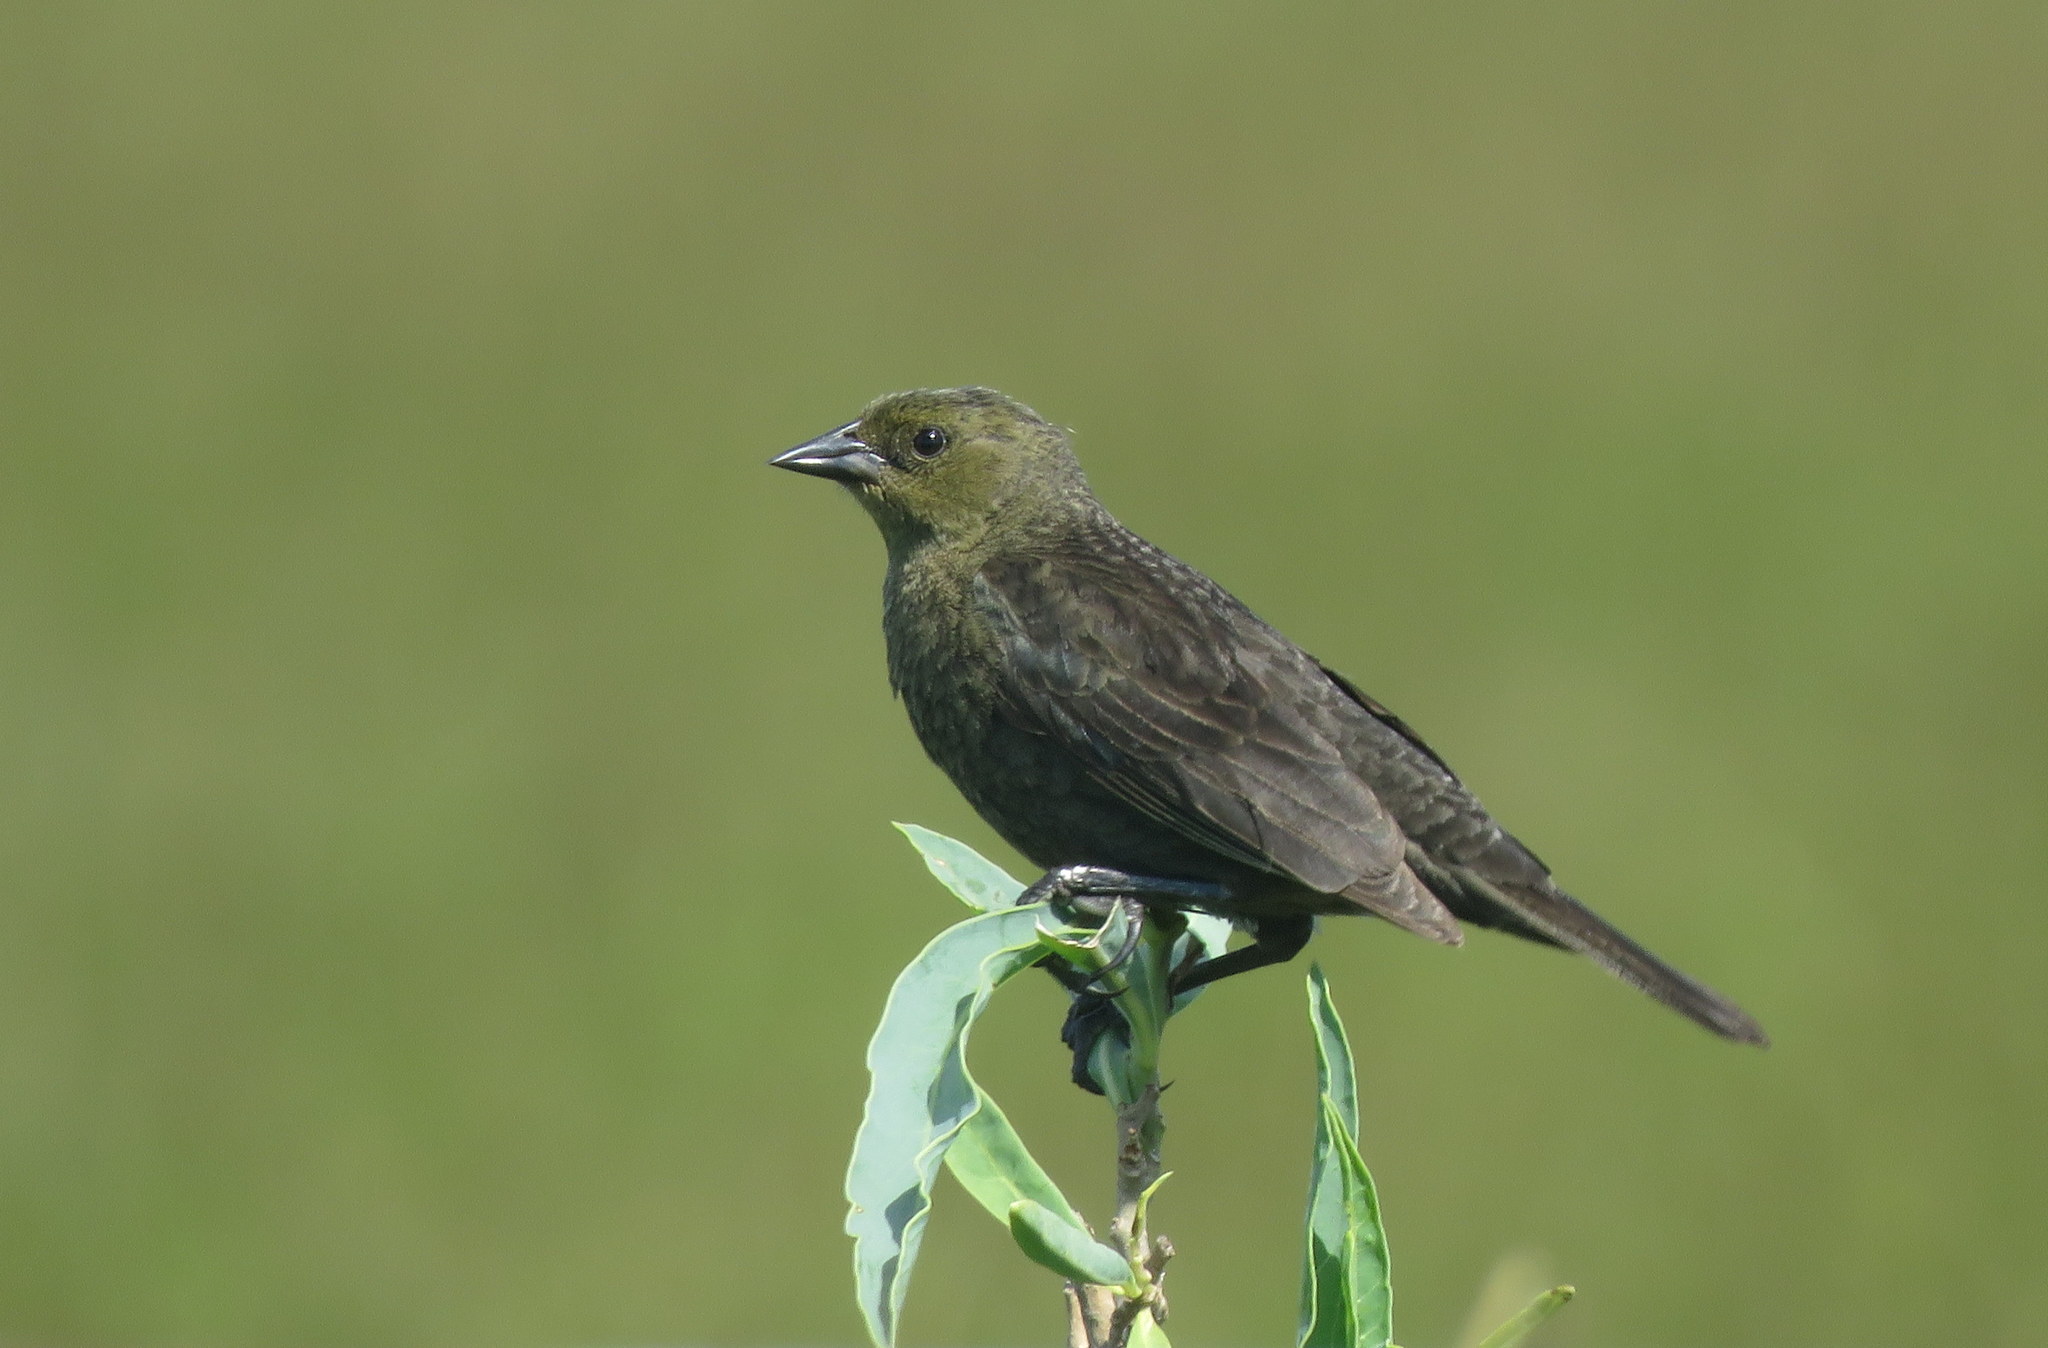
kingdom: Animalia
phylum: Chordata
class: Aves
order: Passeriformes
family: Icteridae
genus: Chrysomus
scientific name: Chrysomus ruficapillus
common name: Chestnut-capped blackbird
